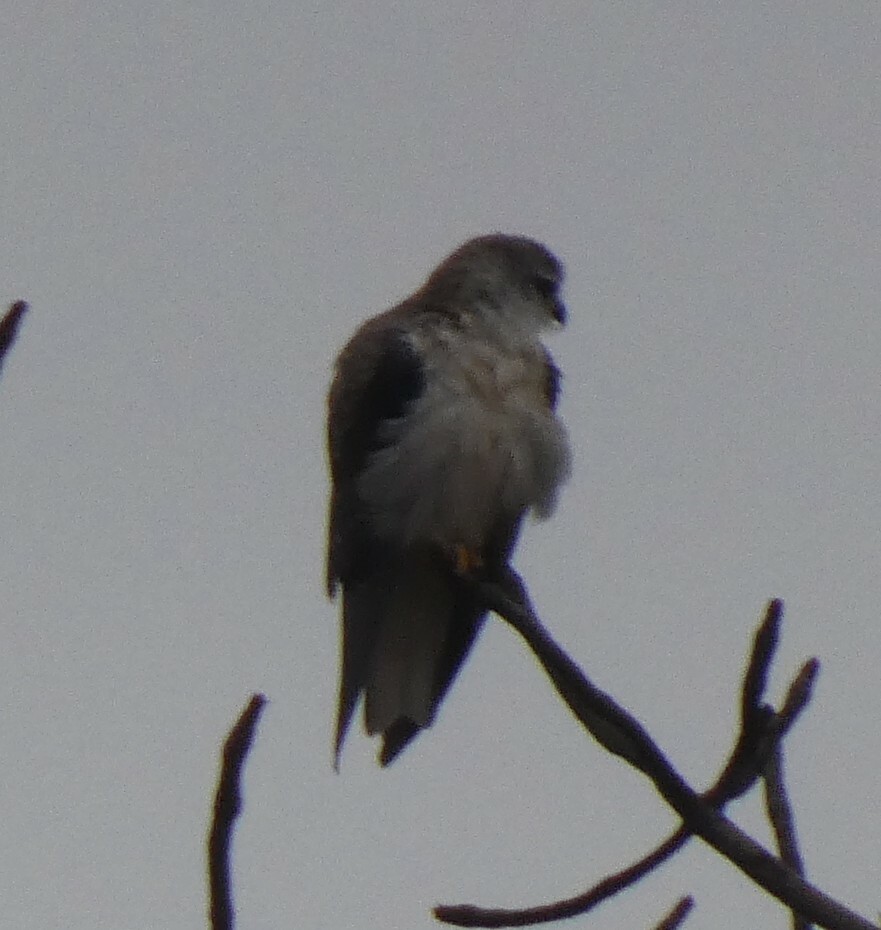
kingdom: Animalia
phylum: Chordata
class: Aves
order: Accipitriformes
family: Accipitridae
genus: Elanus
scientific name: Elanus caeruleus
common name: Black-winged kite
